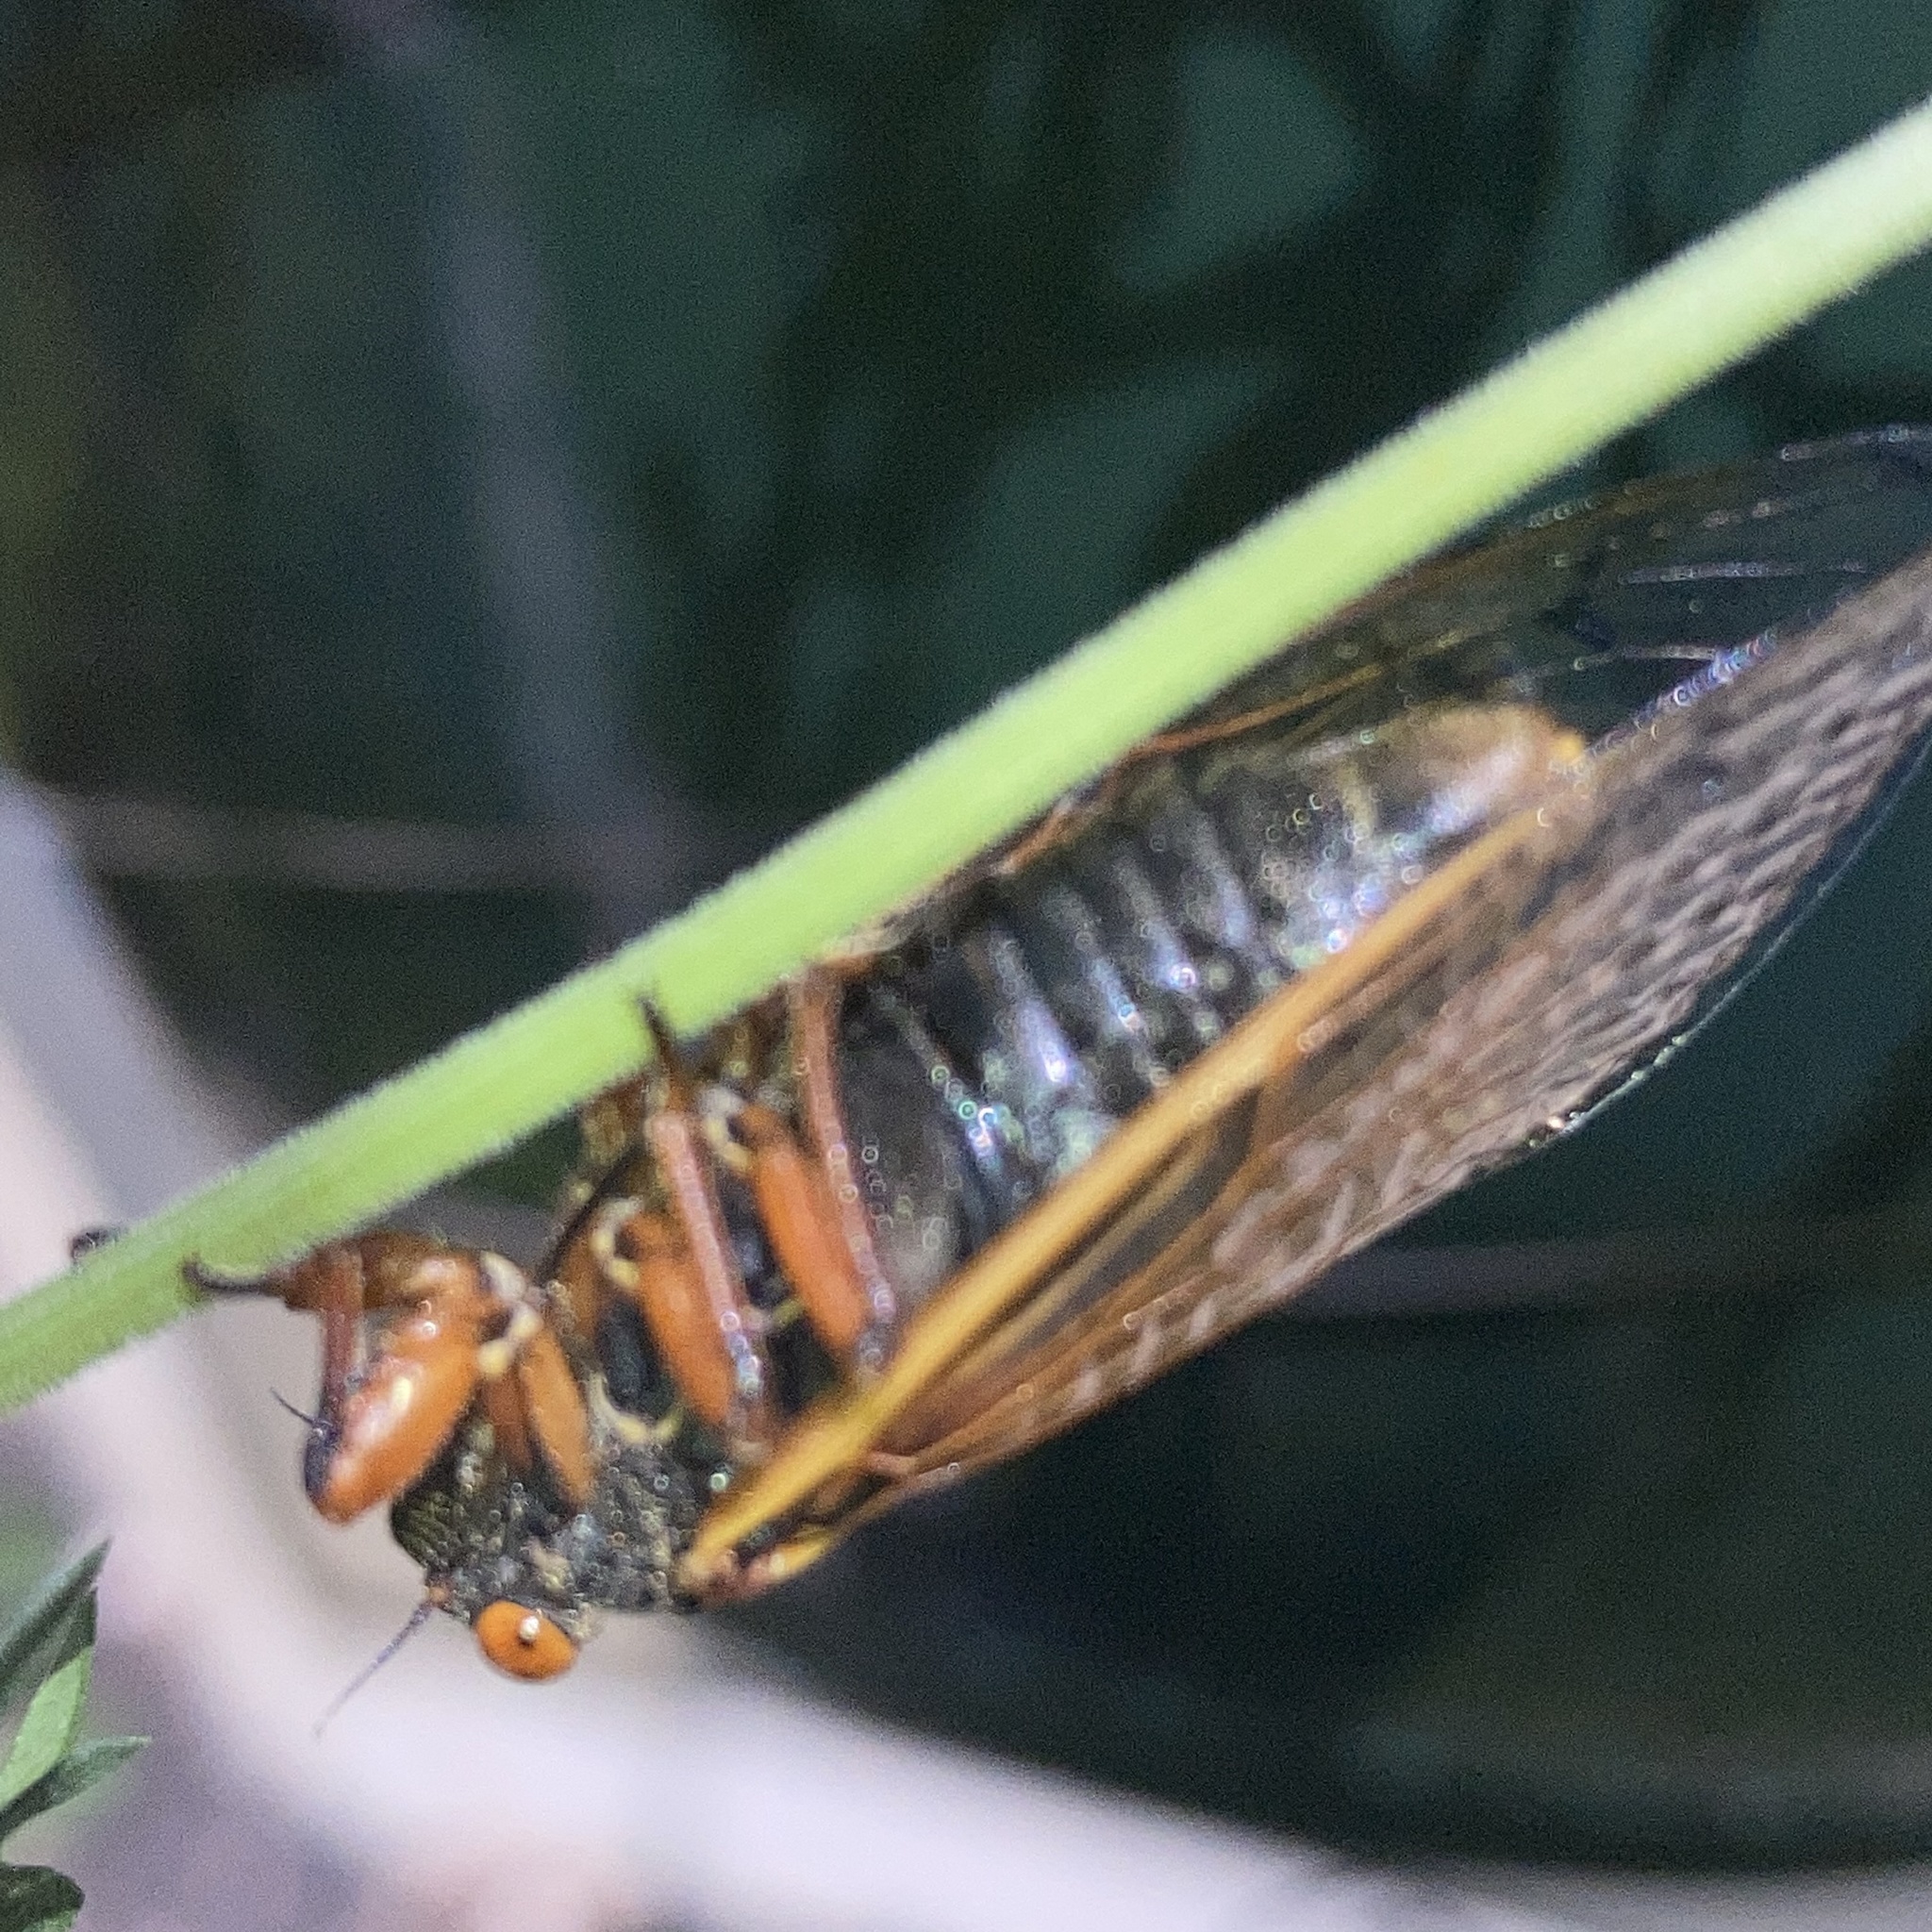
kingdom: Animalia
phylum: Arthropoda
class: Insecta
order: Hemiptera
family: Cicadidae
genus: Magicicada
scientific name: Magicicada cassini
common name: Cassin's 17-year cicada
